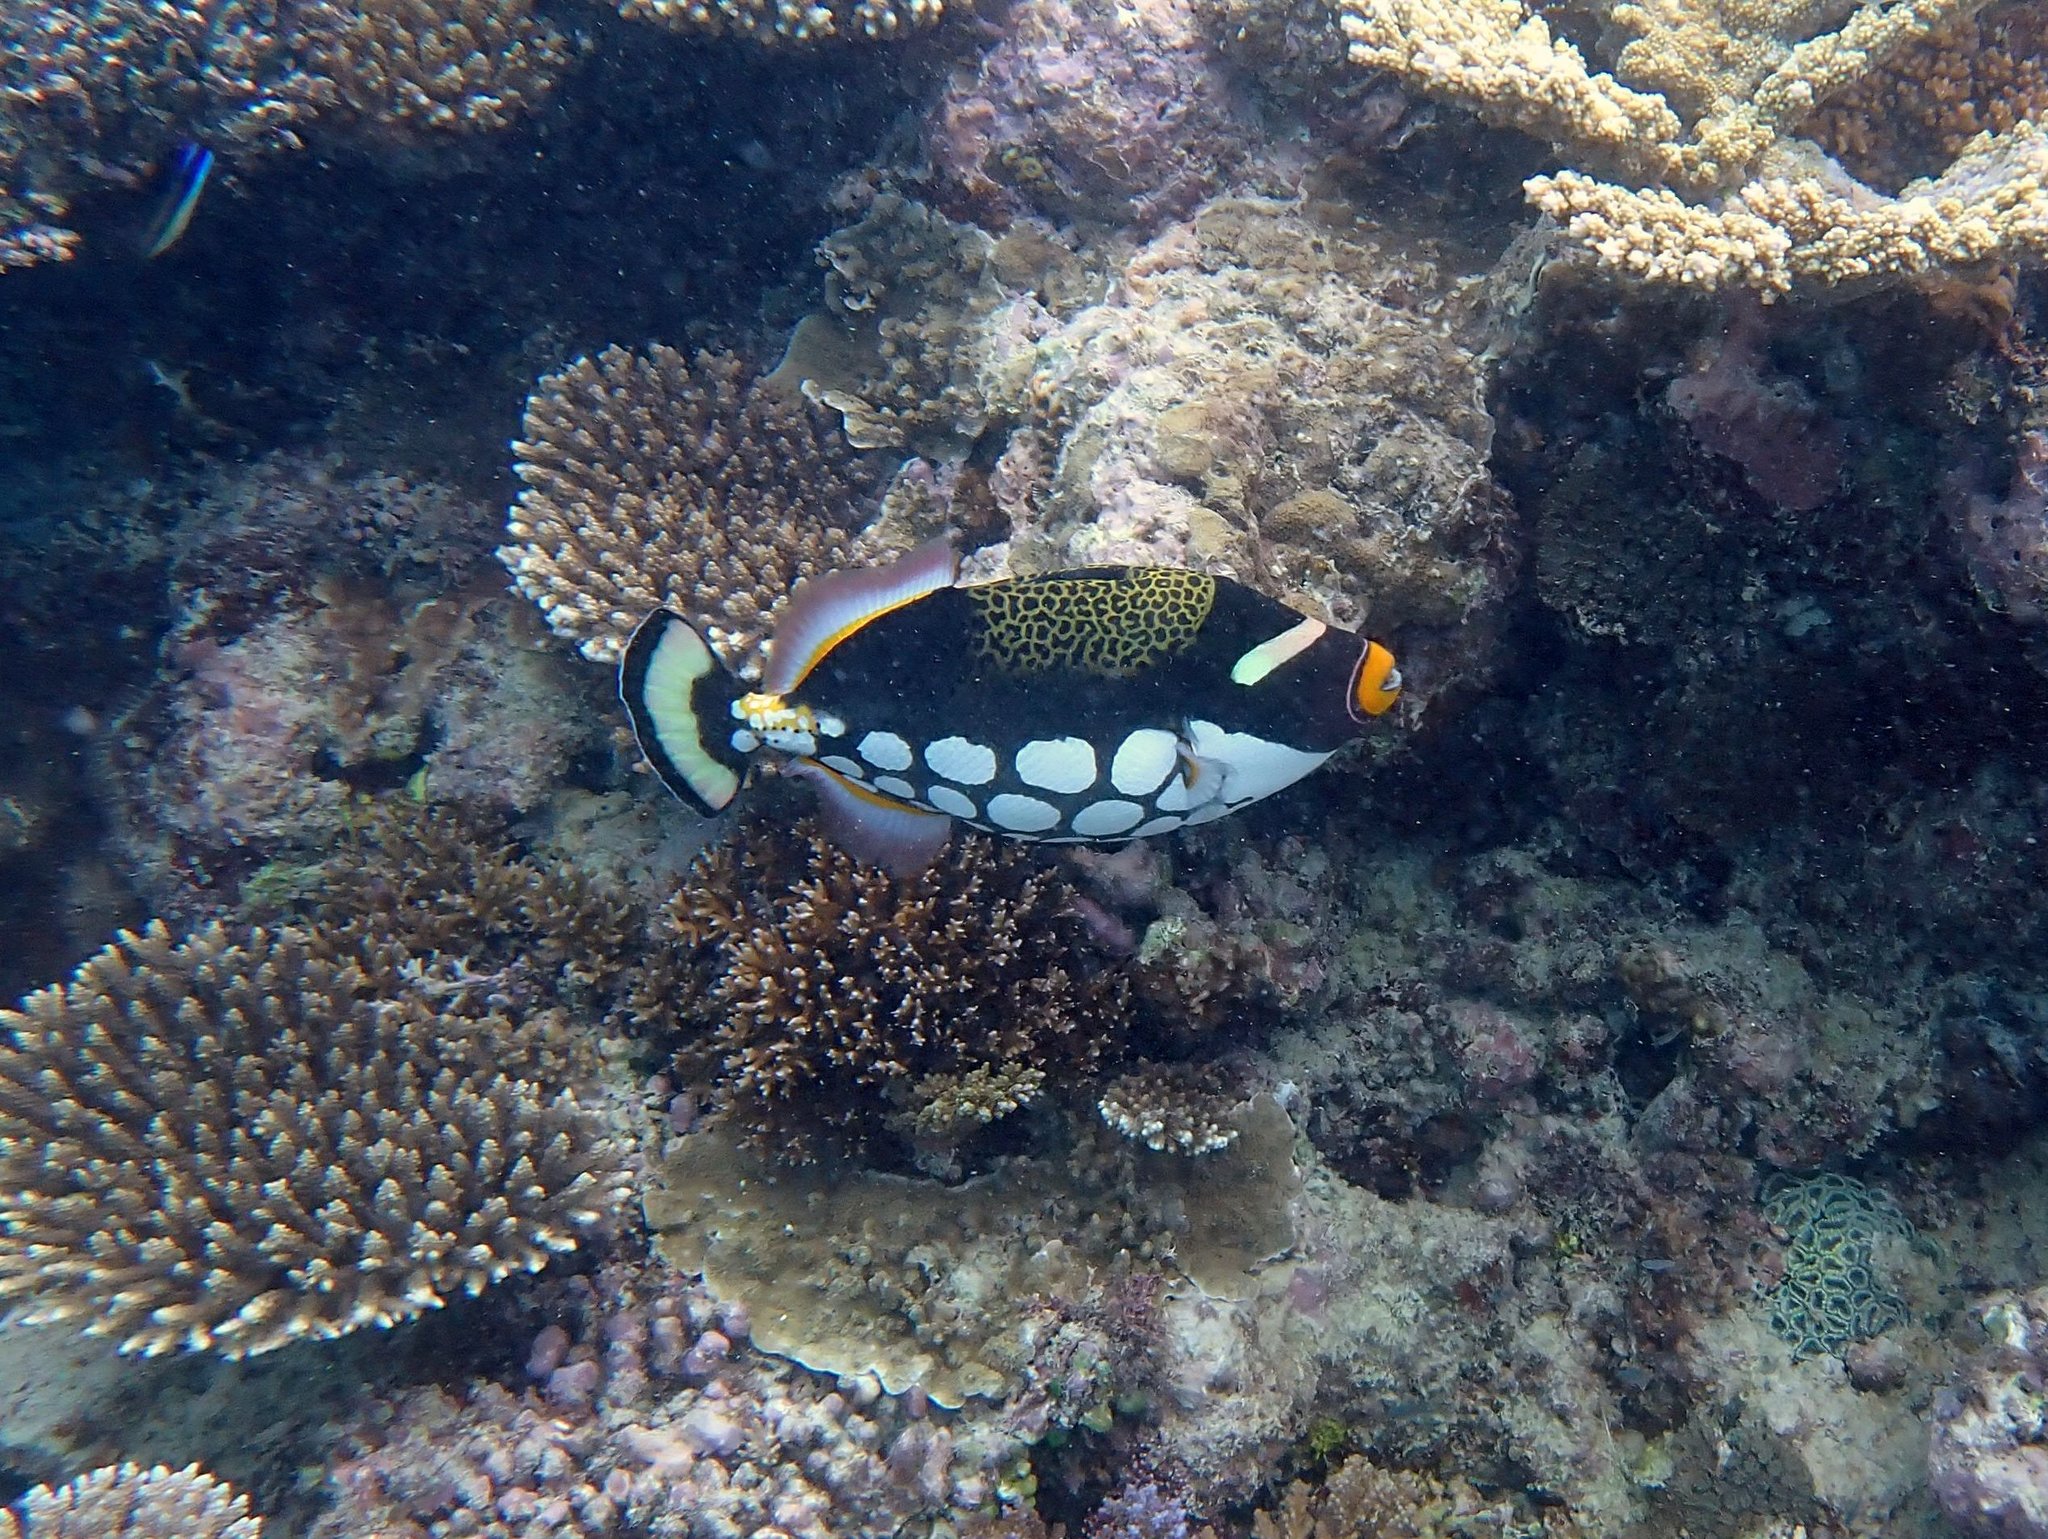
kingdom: Animalia
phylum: Chordata
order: Tetraodontiformes
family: Balistidae
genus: Balistoides
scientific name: Balistoides conspicillum
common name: Clown triggerfish
